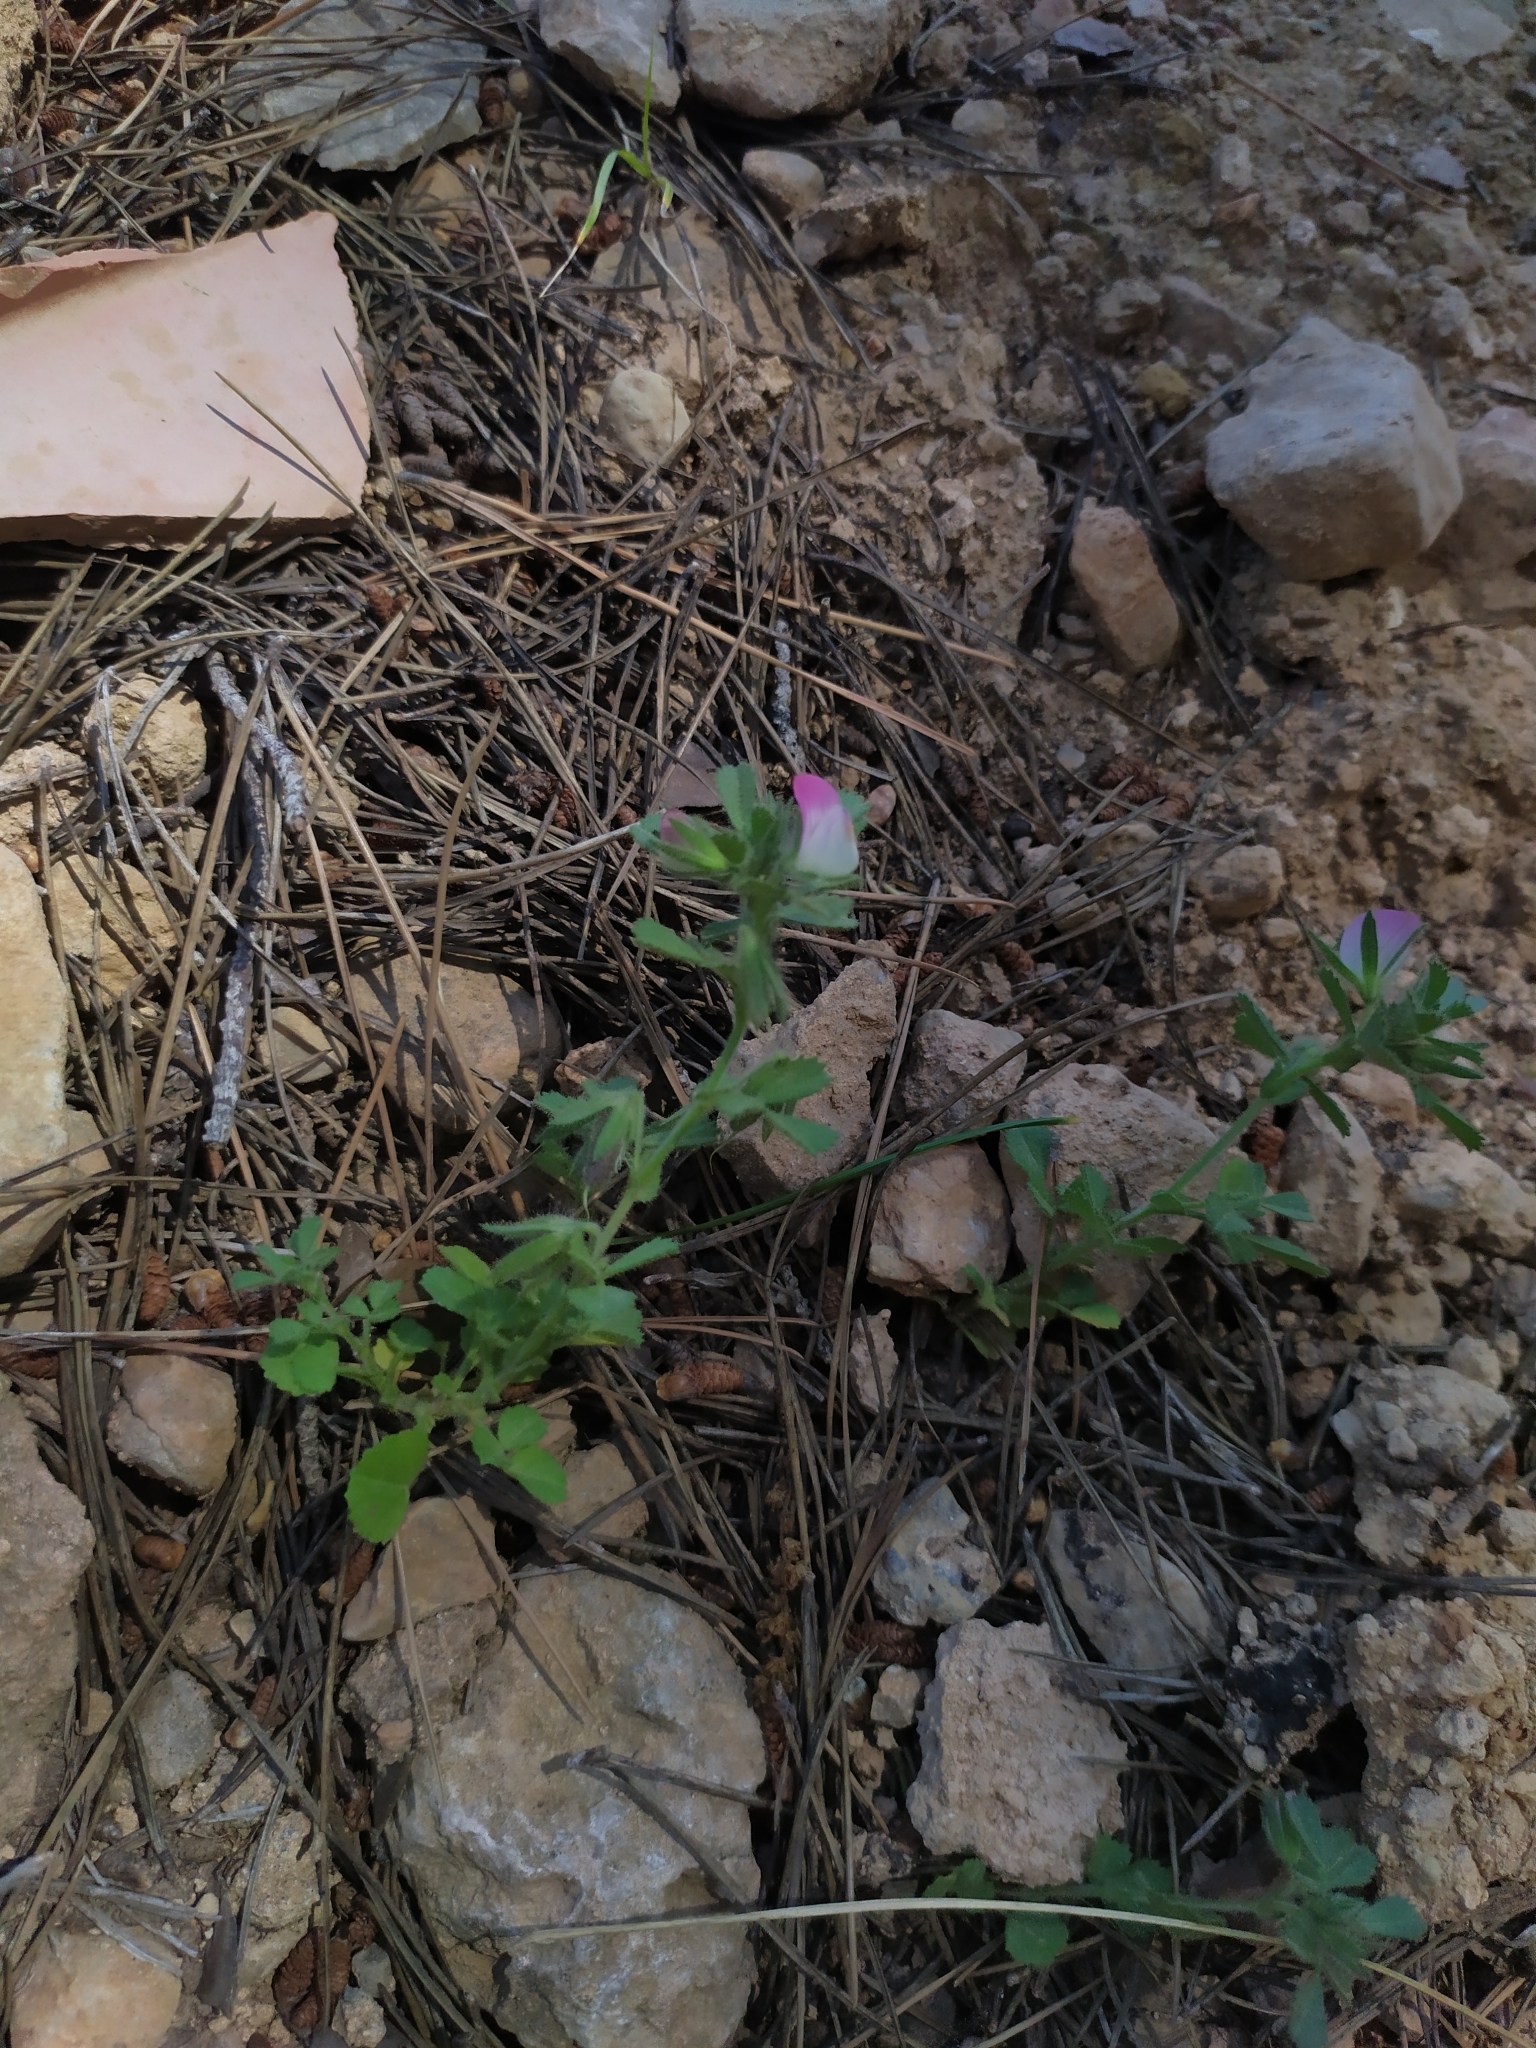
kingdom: Plantae
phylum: Tracheophyta
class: Magnoliopsida
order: Fabales
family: Fabaceae
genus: Ononis
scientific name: Ononis reclinata
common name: Small restharrow
